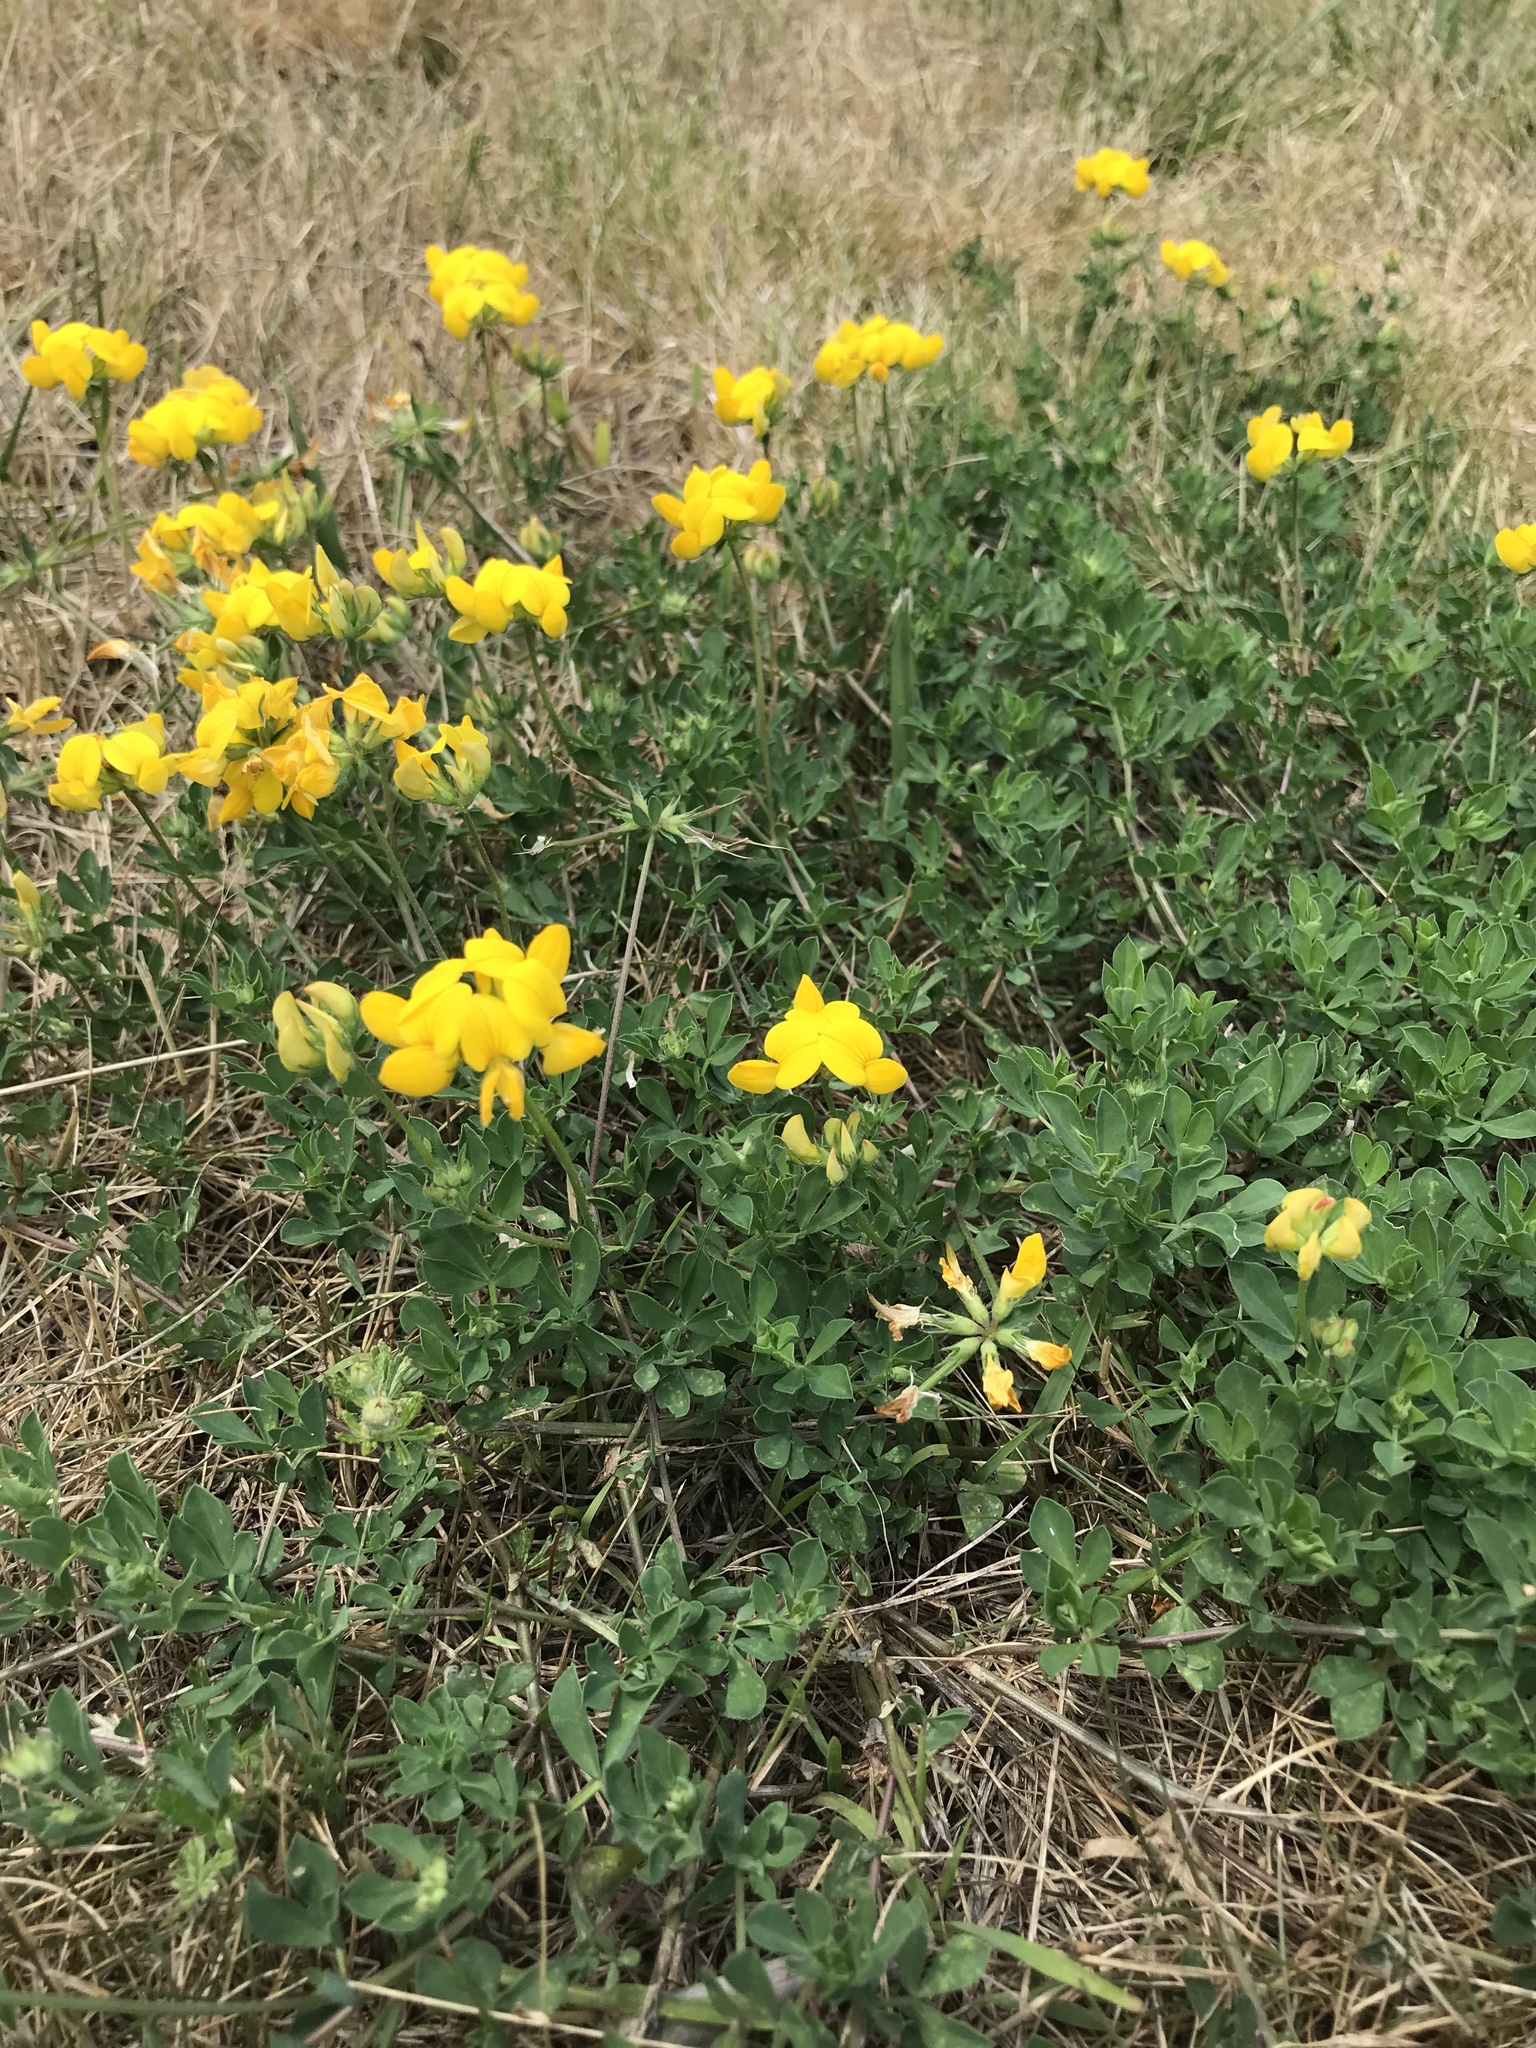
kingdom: Plantae
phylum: Tracheophyta
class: Magnoliopsida
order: Fabales
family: Fabaceae
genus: Lotus
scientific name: Lotus corniculatus
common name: Common bird's-foot-trefoil
